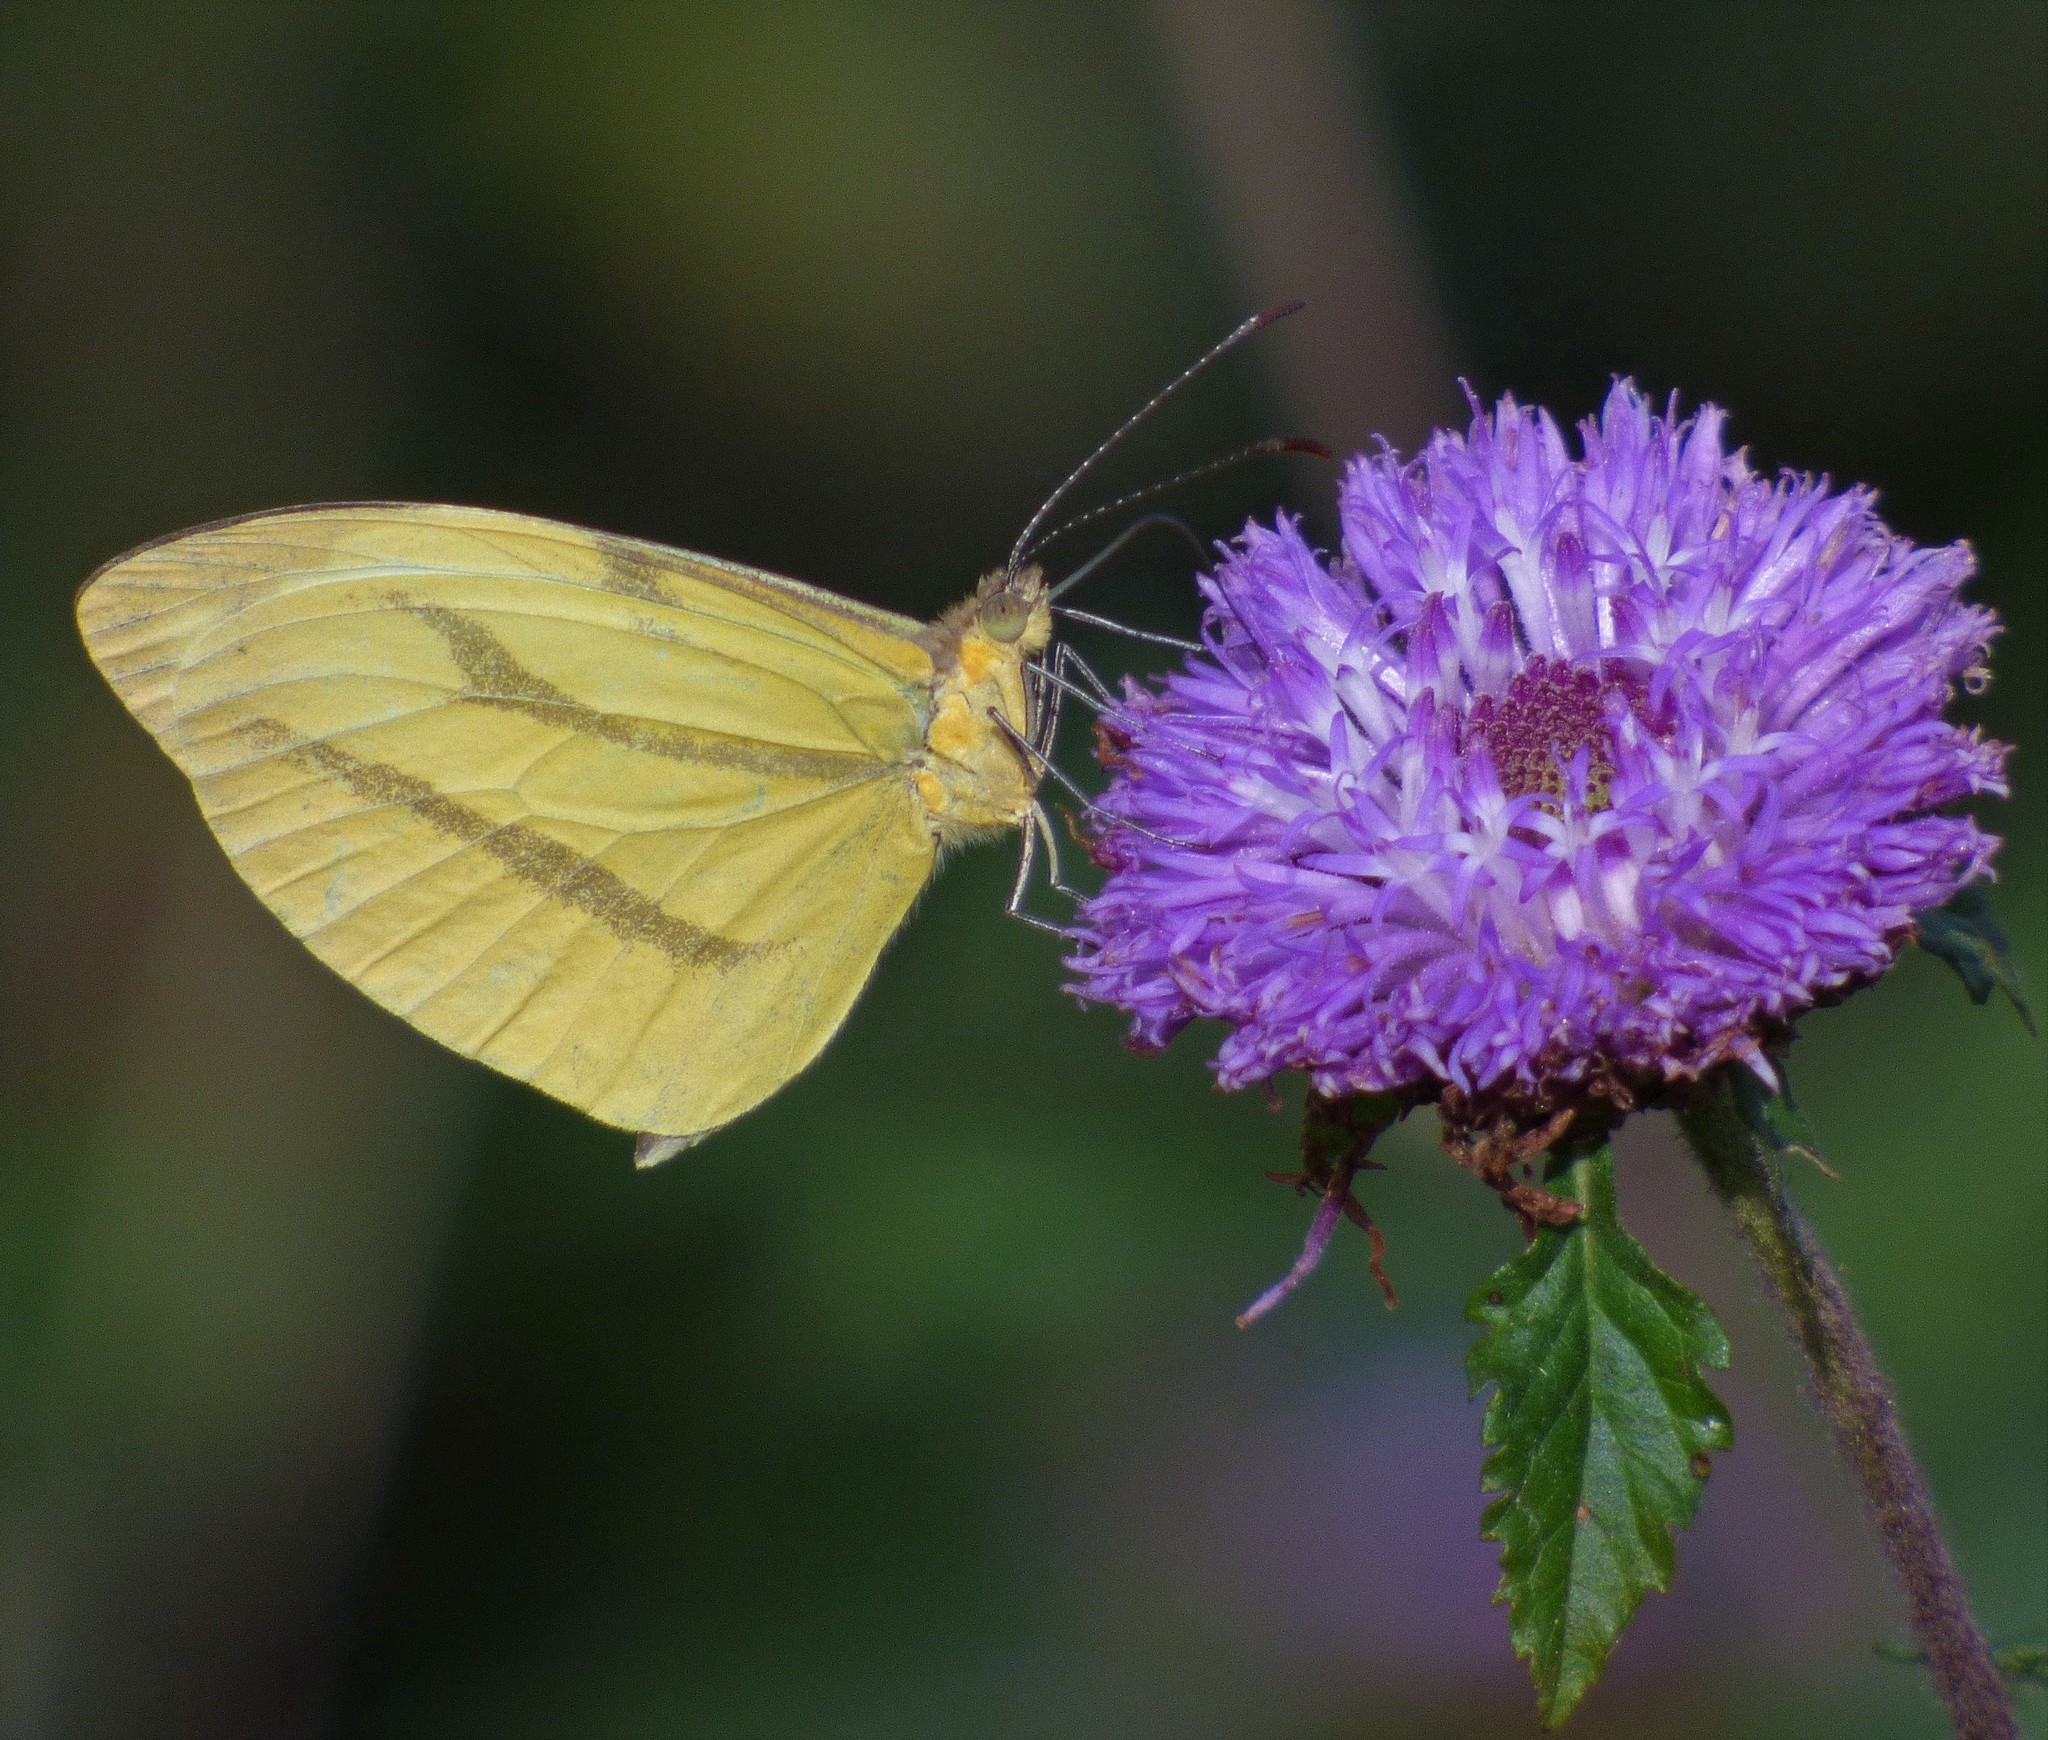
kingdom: Animalia
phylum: Arthropoda
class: Insecta
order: Lepidoptera
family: Pieridae
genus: Enantia
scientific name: Enantia lina
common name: White mimic-white
